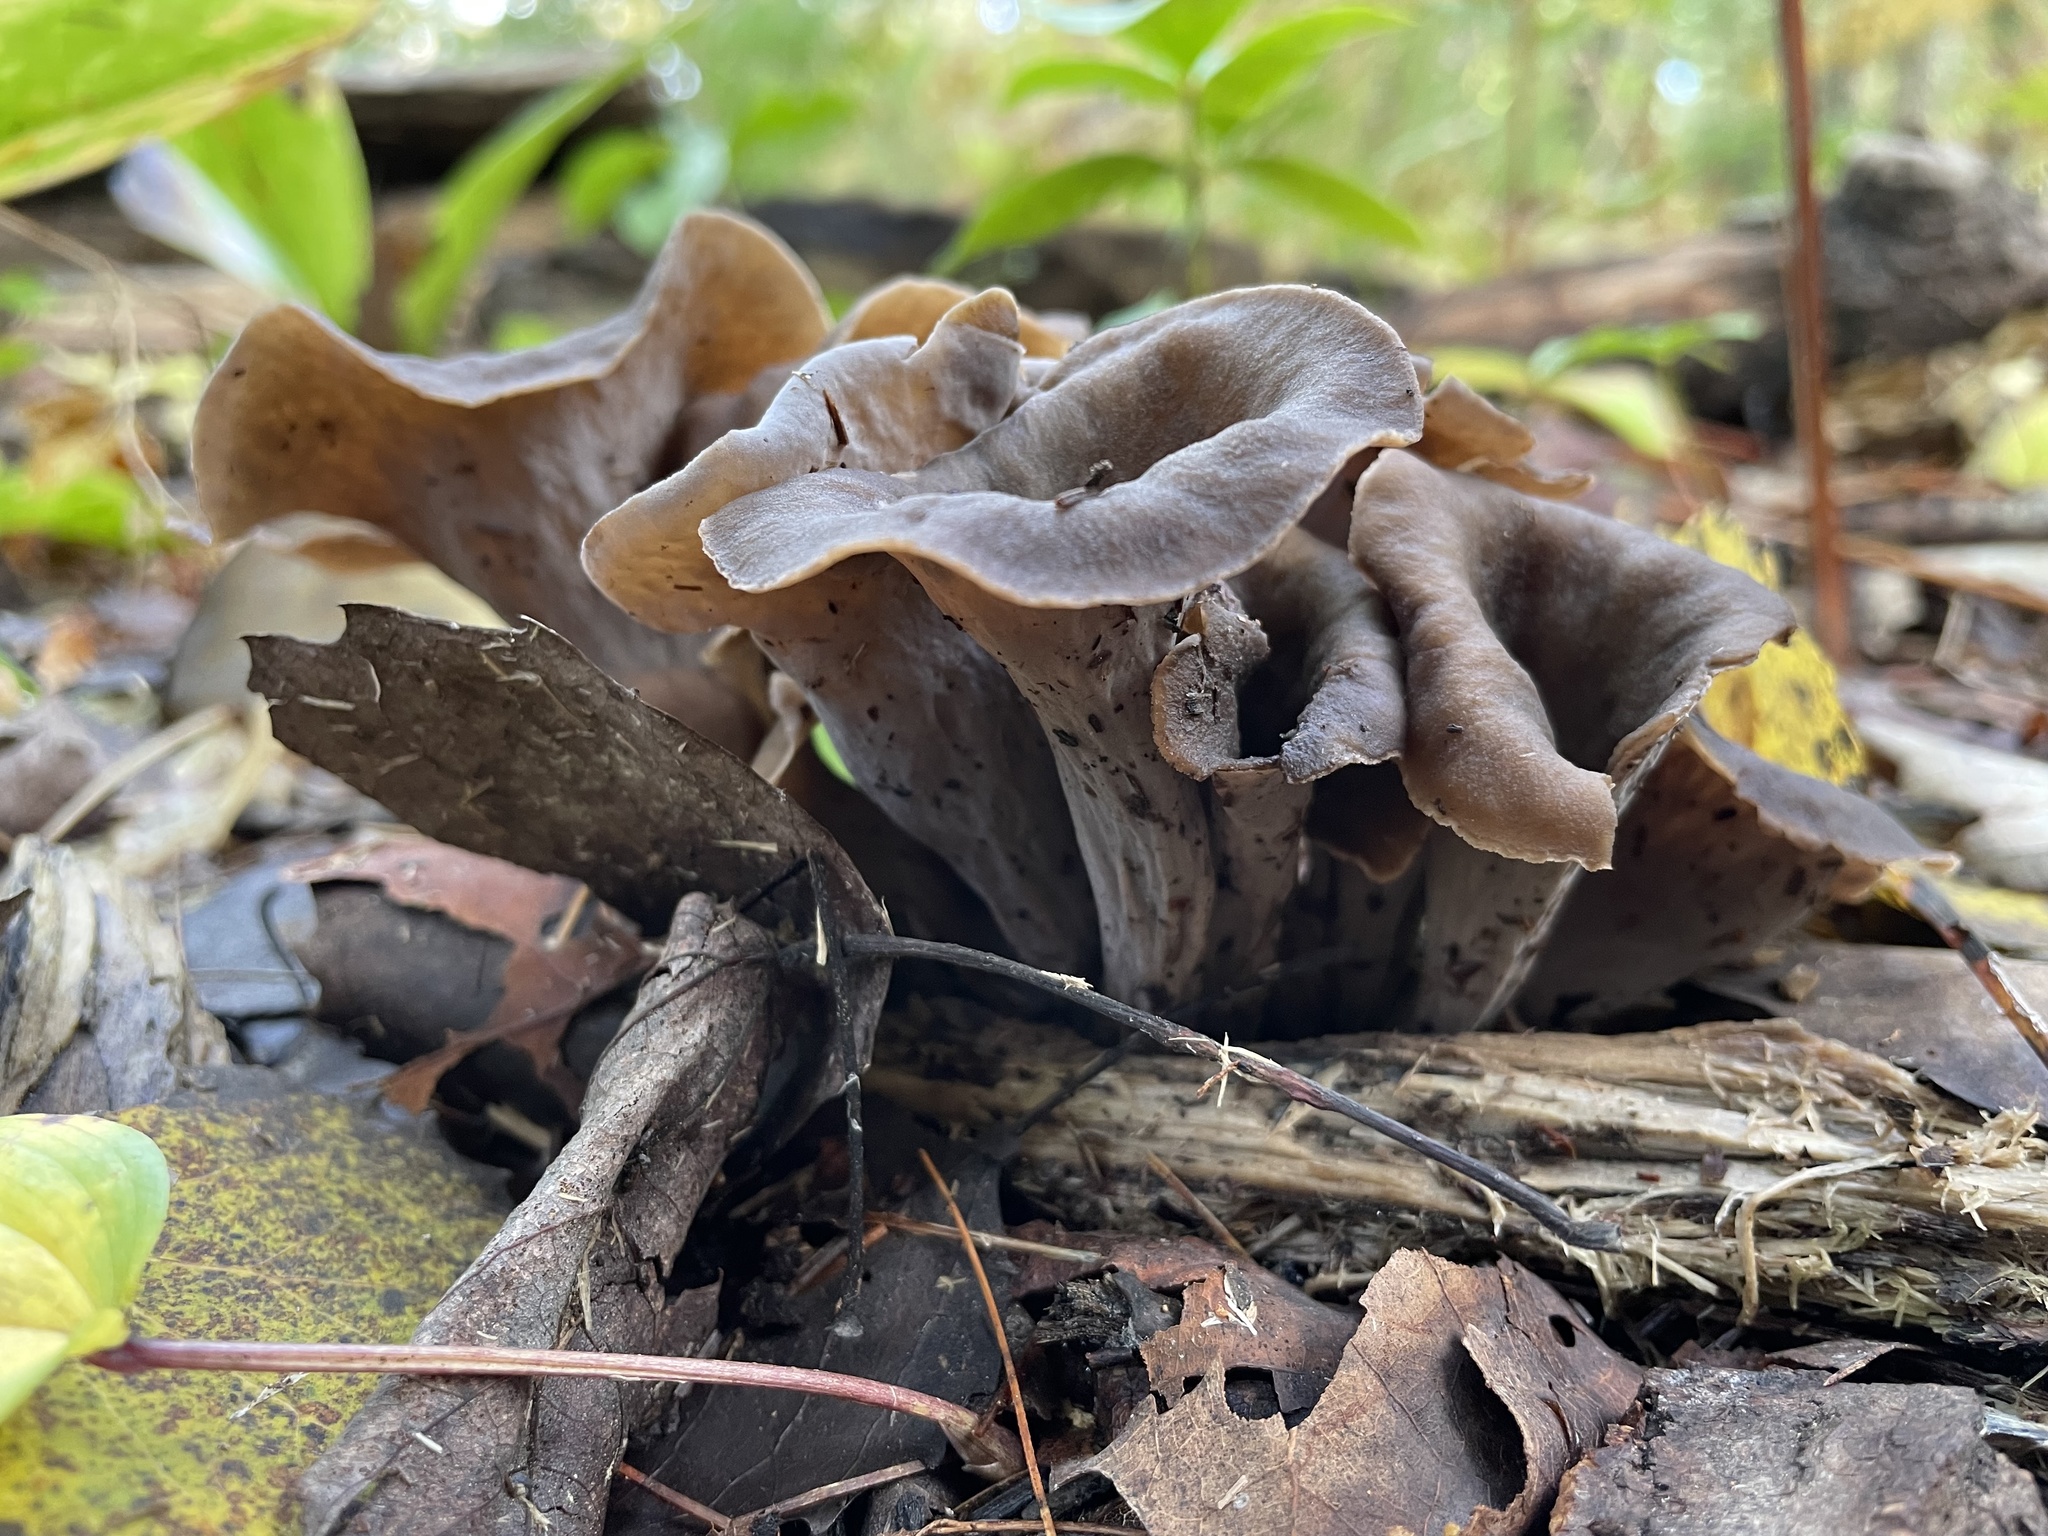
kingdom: Fungi
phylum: Basidiomycota
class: Agaricomycetes
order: Cantharellales
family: Hydnaceae
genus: Craterellus
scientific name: Craterellus cornucopioides
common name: Horn of plenty
